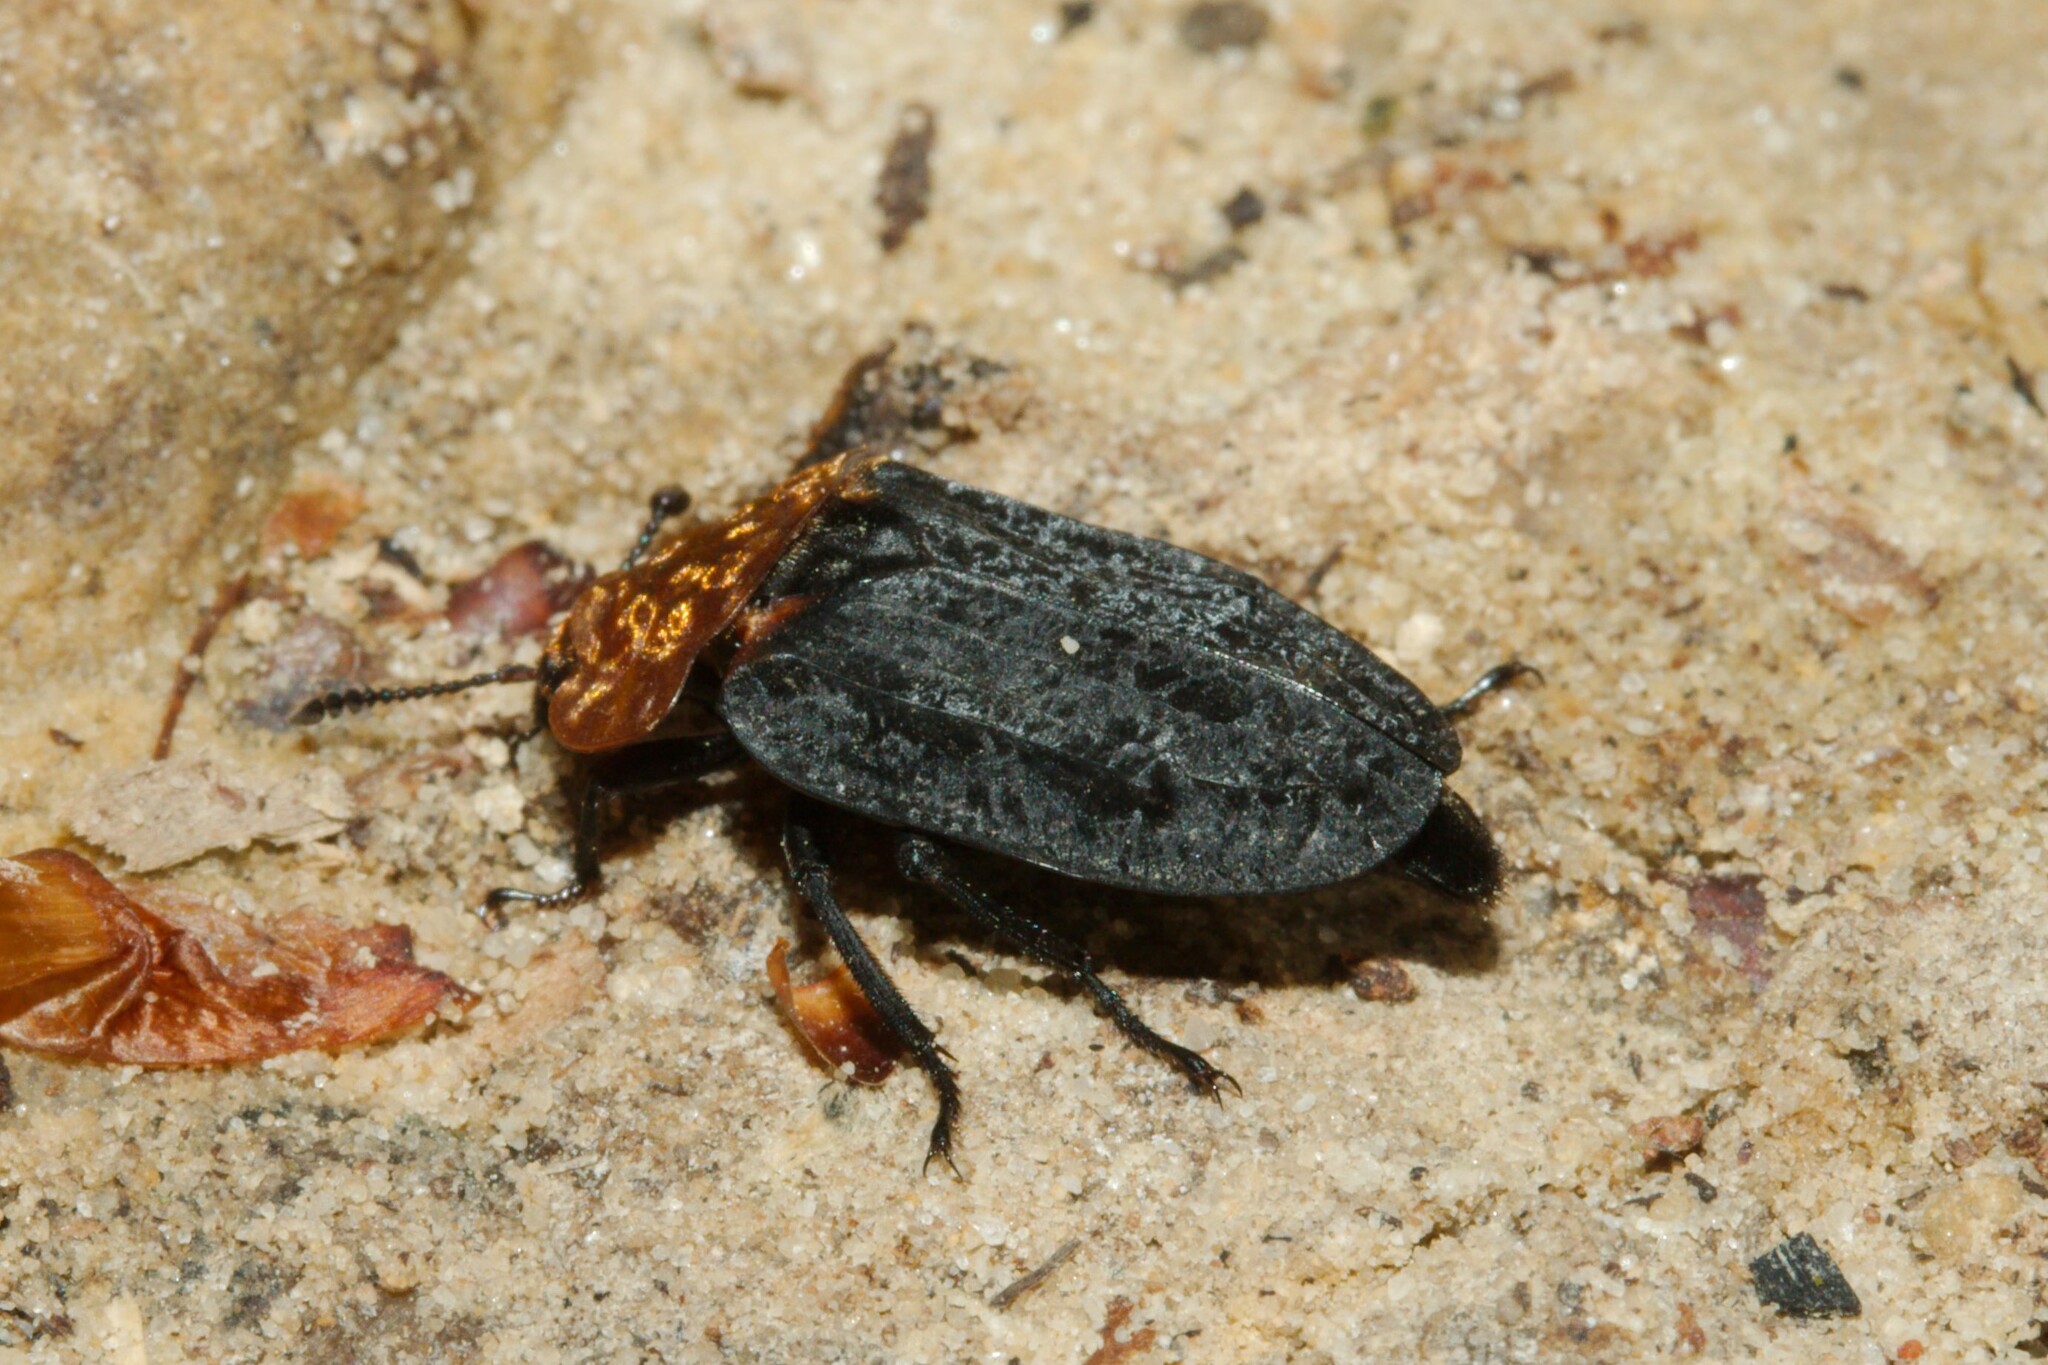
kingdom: Animalia
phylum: Arthropoda
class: Insecta
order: Coleoptera
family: Staphylinidae
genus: Oiceoptoma
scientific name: Oiceoptoma thoracicum
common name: Red-breasted carrion beetle
